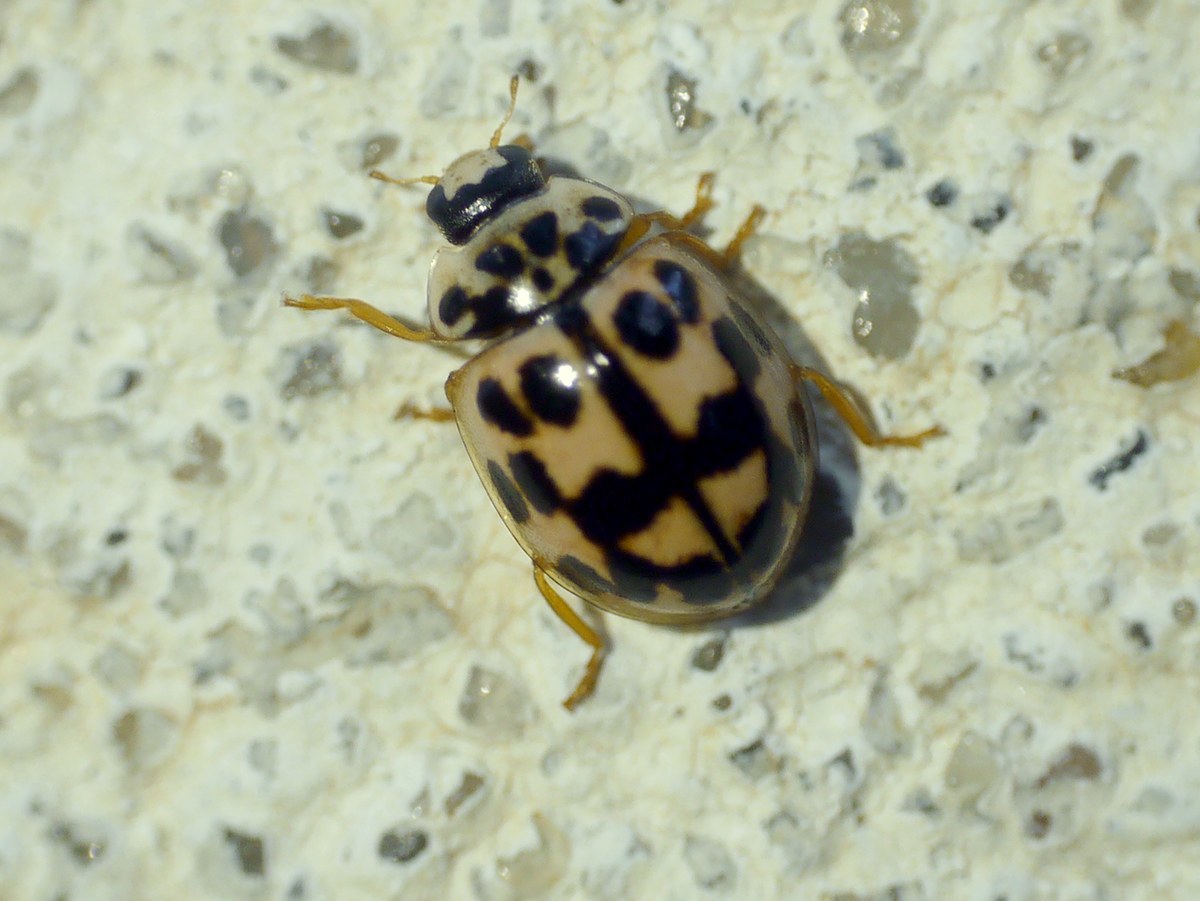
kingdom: Animalia
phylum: Arthropoda
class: Insecta
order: Coleoptera
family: Coccinellidae
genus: Oenopia
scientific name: Oenopia conglobata
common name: Ladybird beetle
